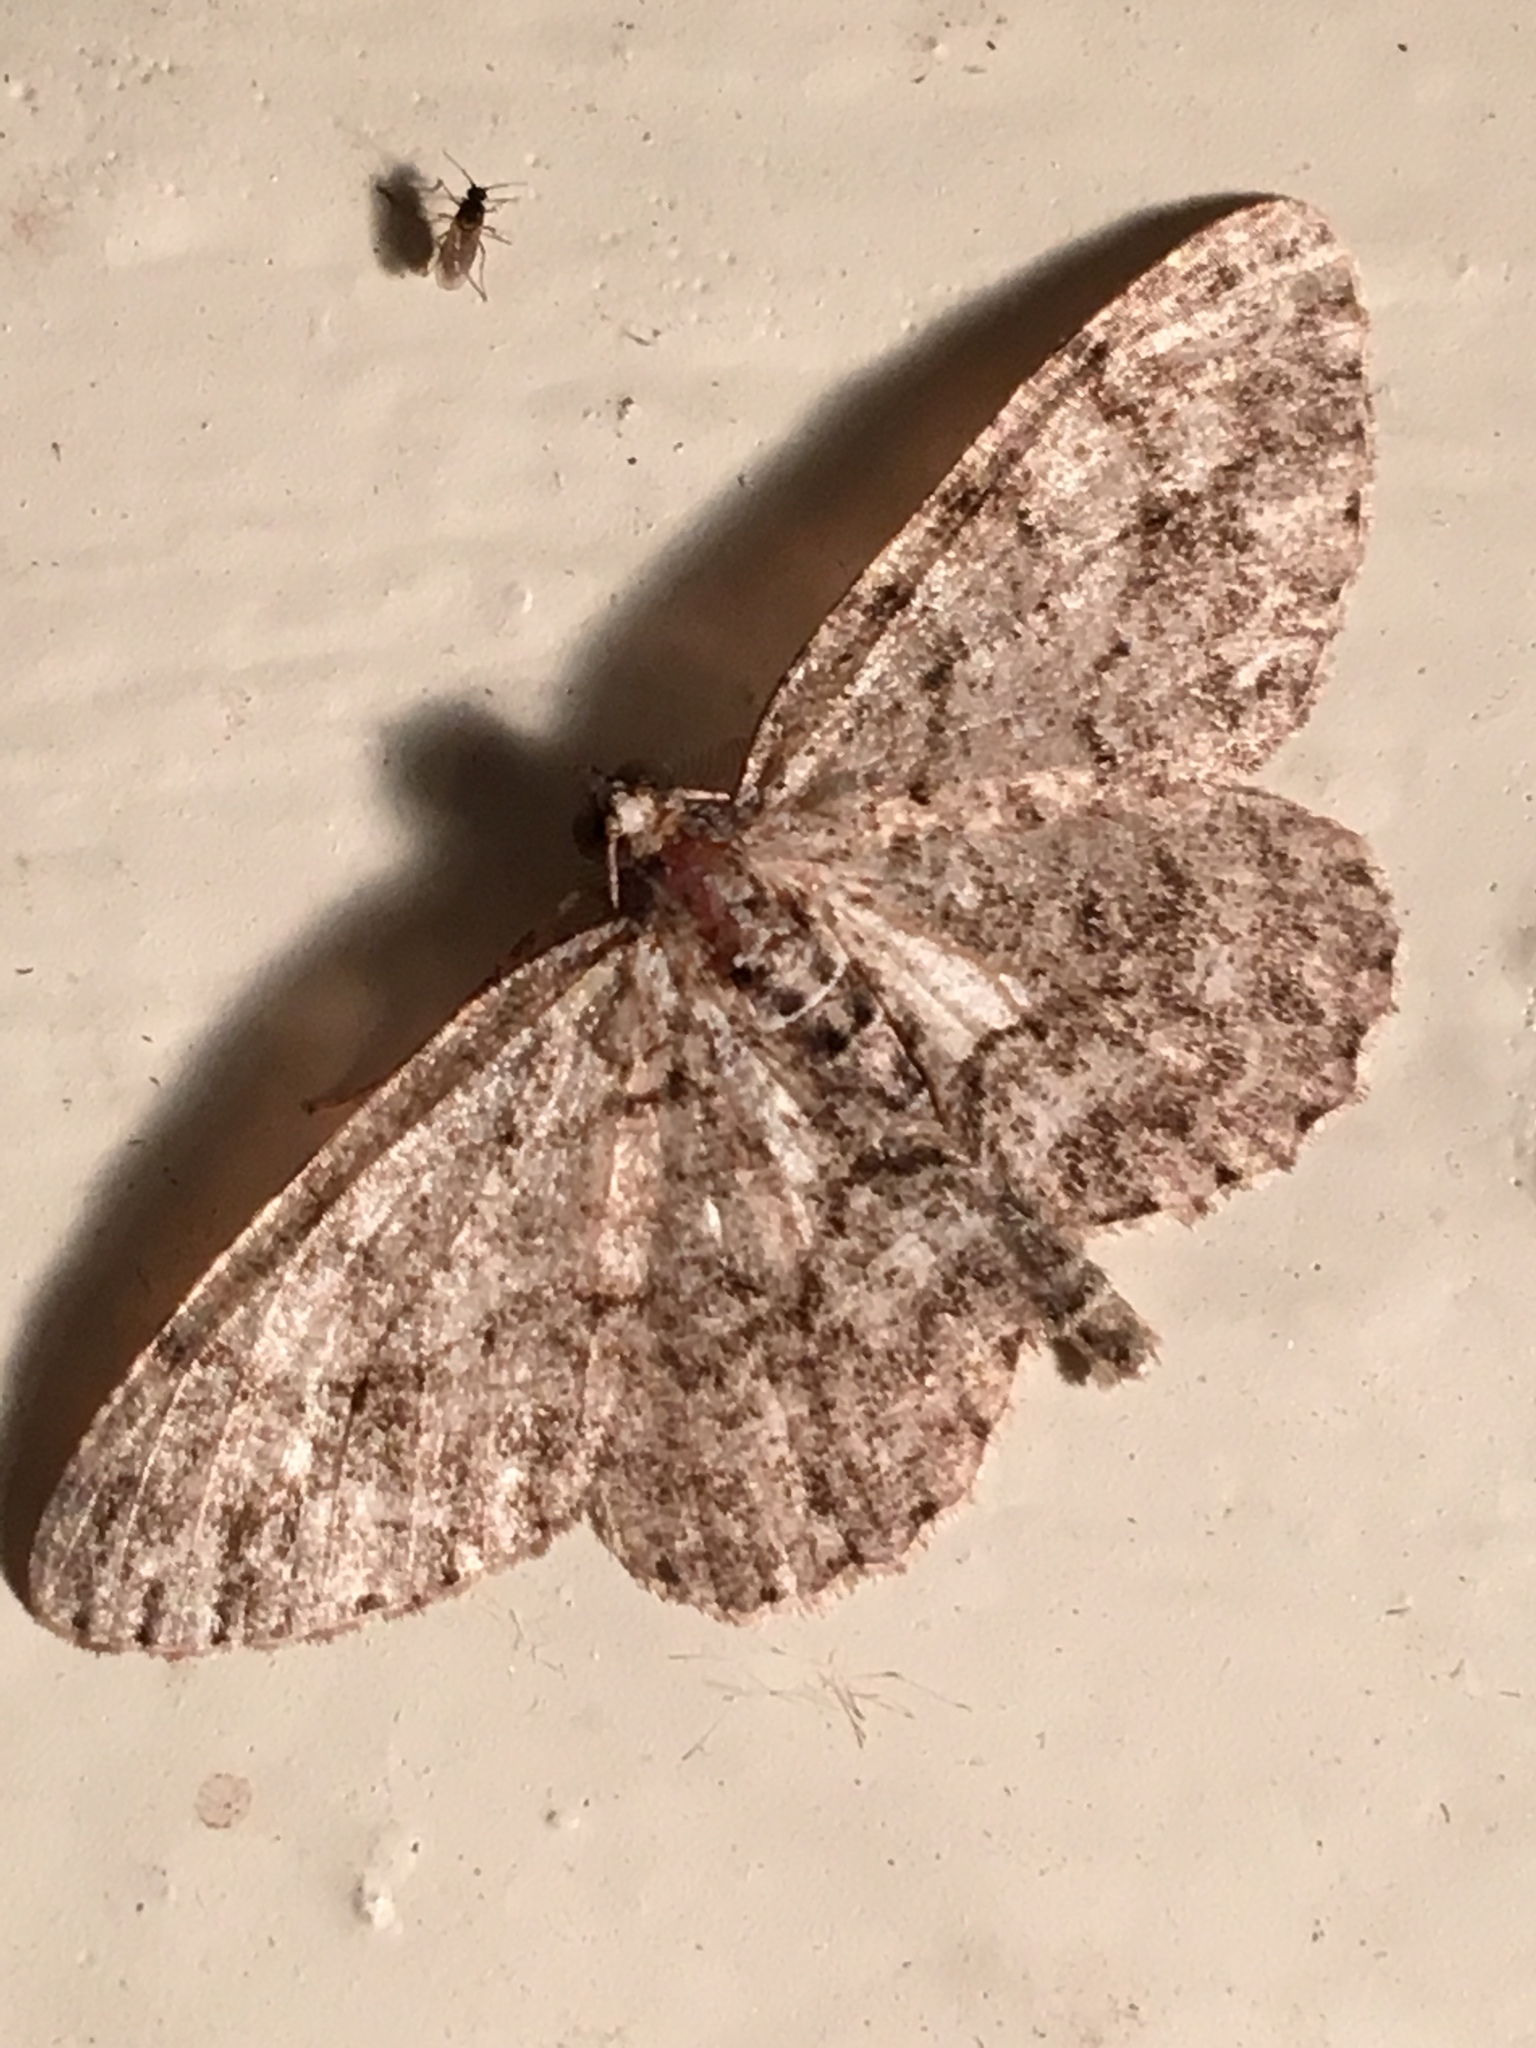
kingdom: Animalia
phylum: Arthropoda
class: Insecta
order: Lepidoptera
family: Geometridae
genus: Protoboarmia
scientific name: Protoboarmia porcelaria
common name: Porcelain gray
